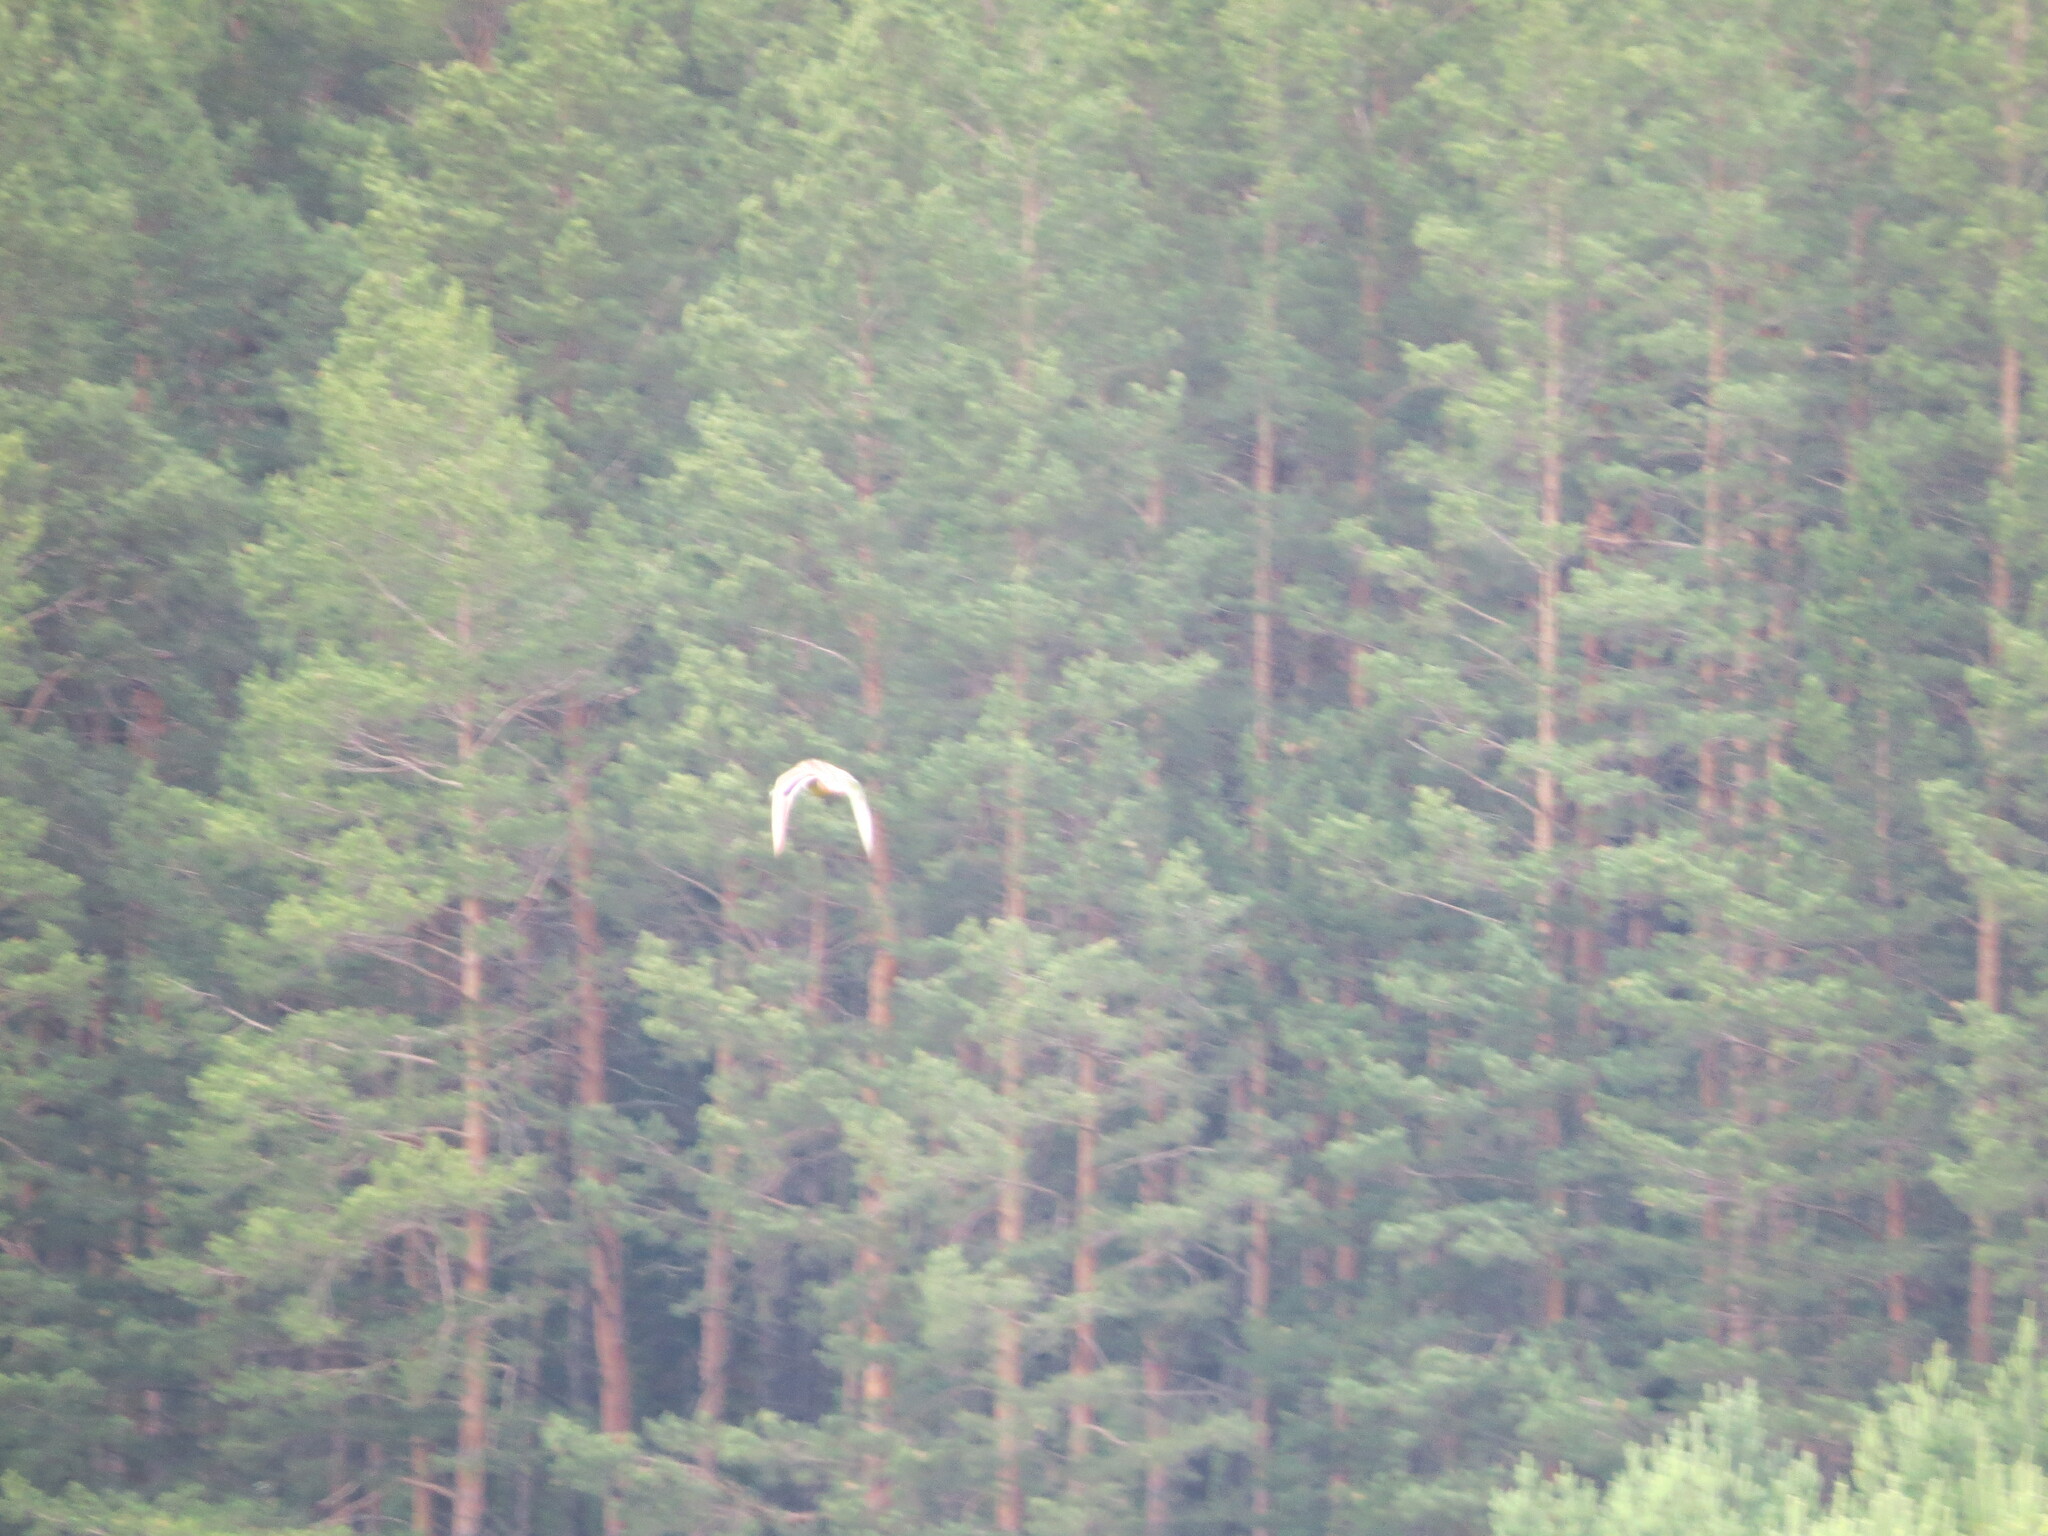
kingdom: Animalia
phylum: Chordata
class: Aves
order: Anseriformes
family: Anatidae
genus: Anas
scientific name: Anas platyrhynchos
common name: Mallard
